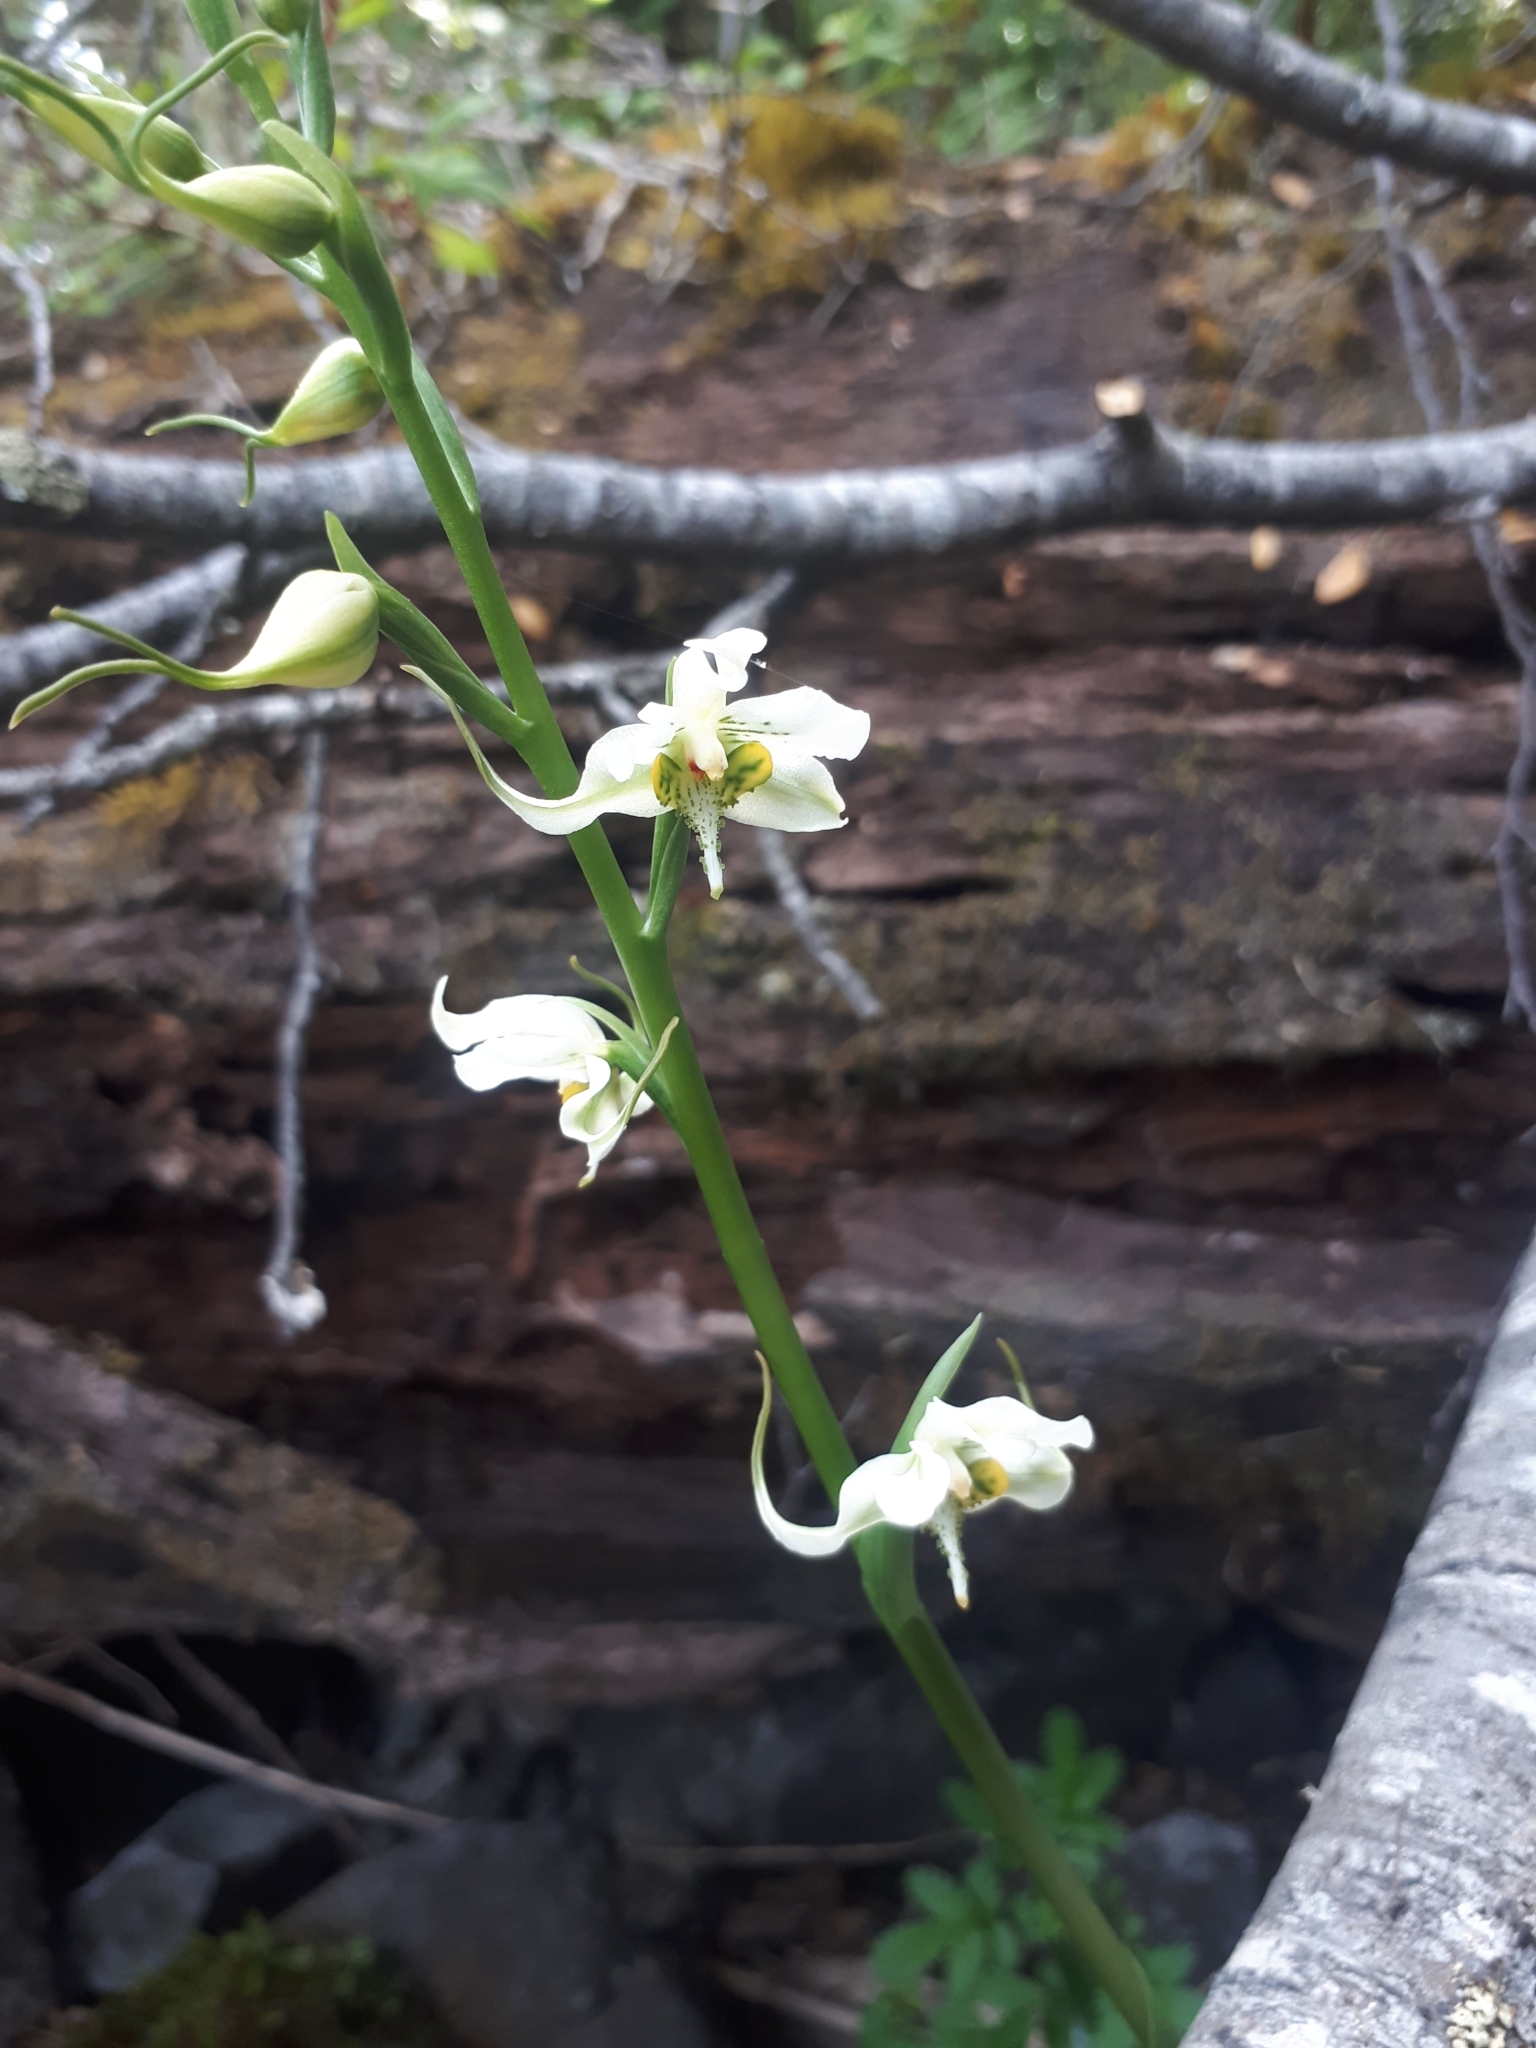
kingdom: Plantae
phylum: Tracheophyta
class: Liliopsida
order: Asparagales
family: Orchidaceae
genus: Gavilea
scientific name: Gavilea araucana
